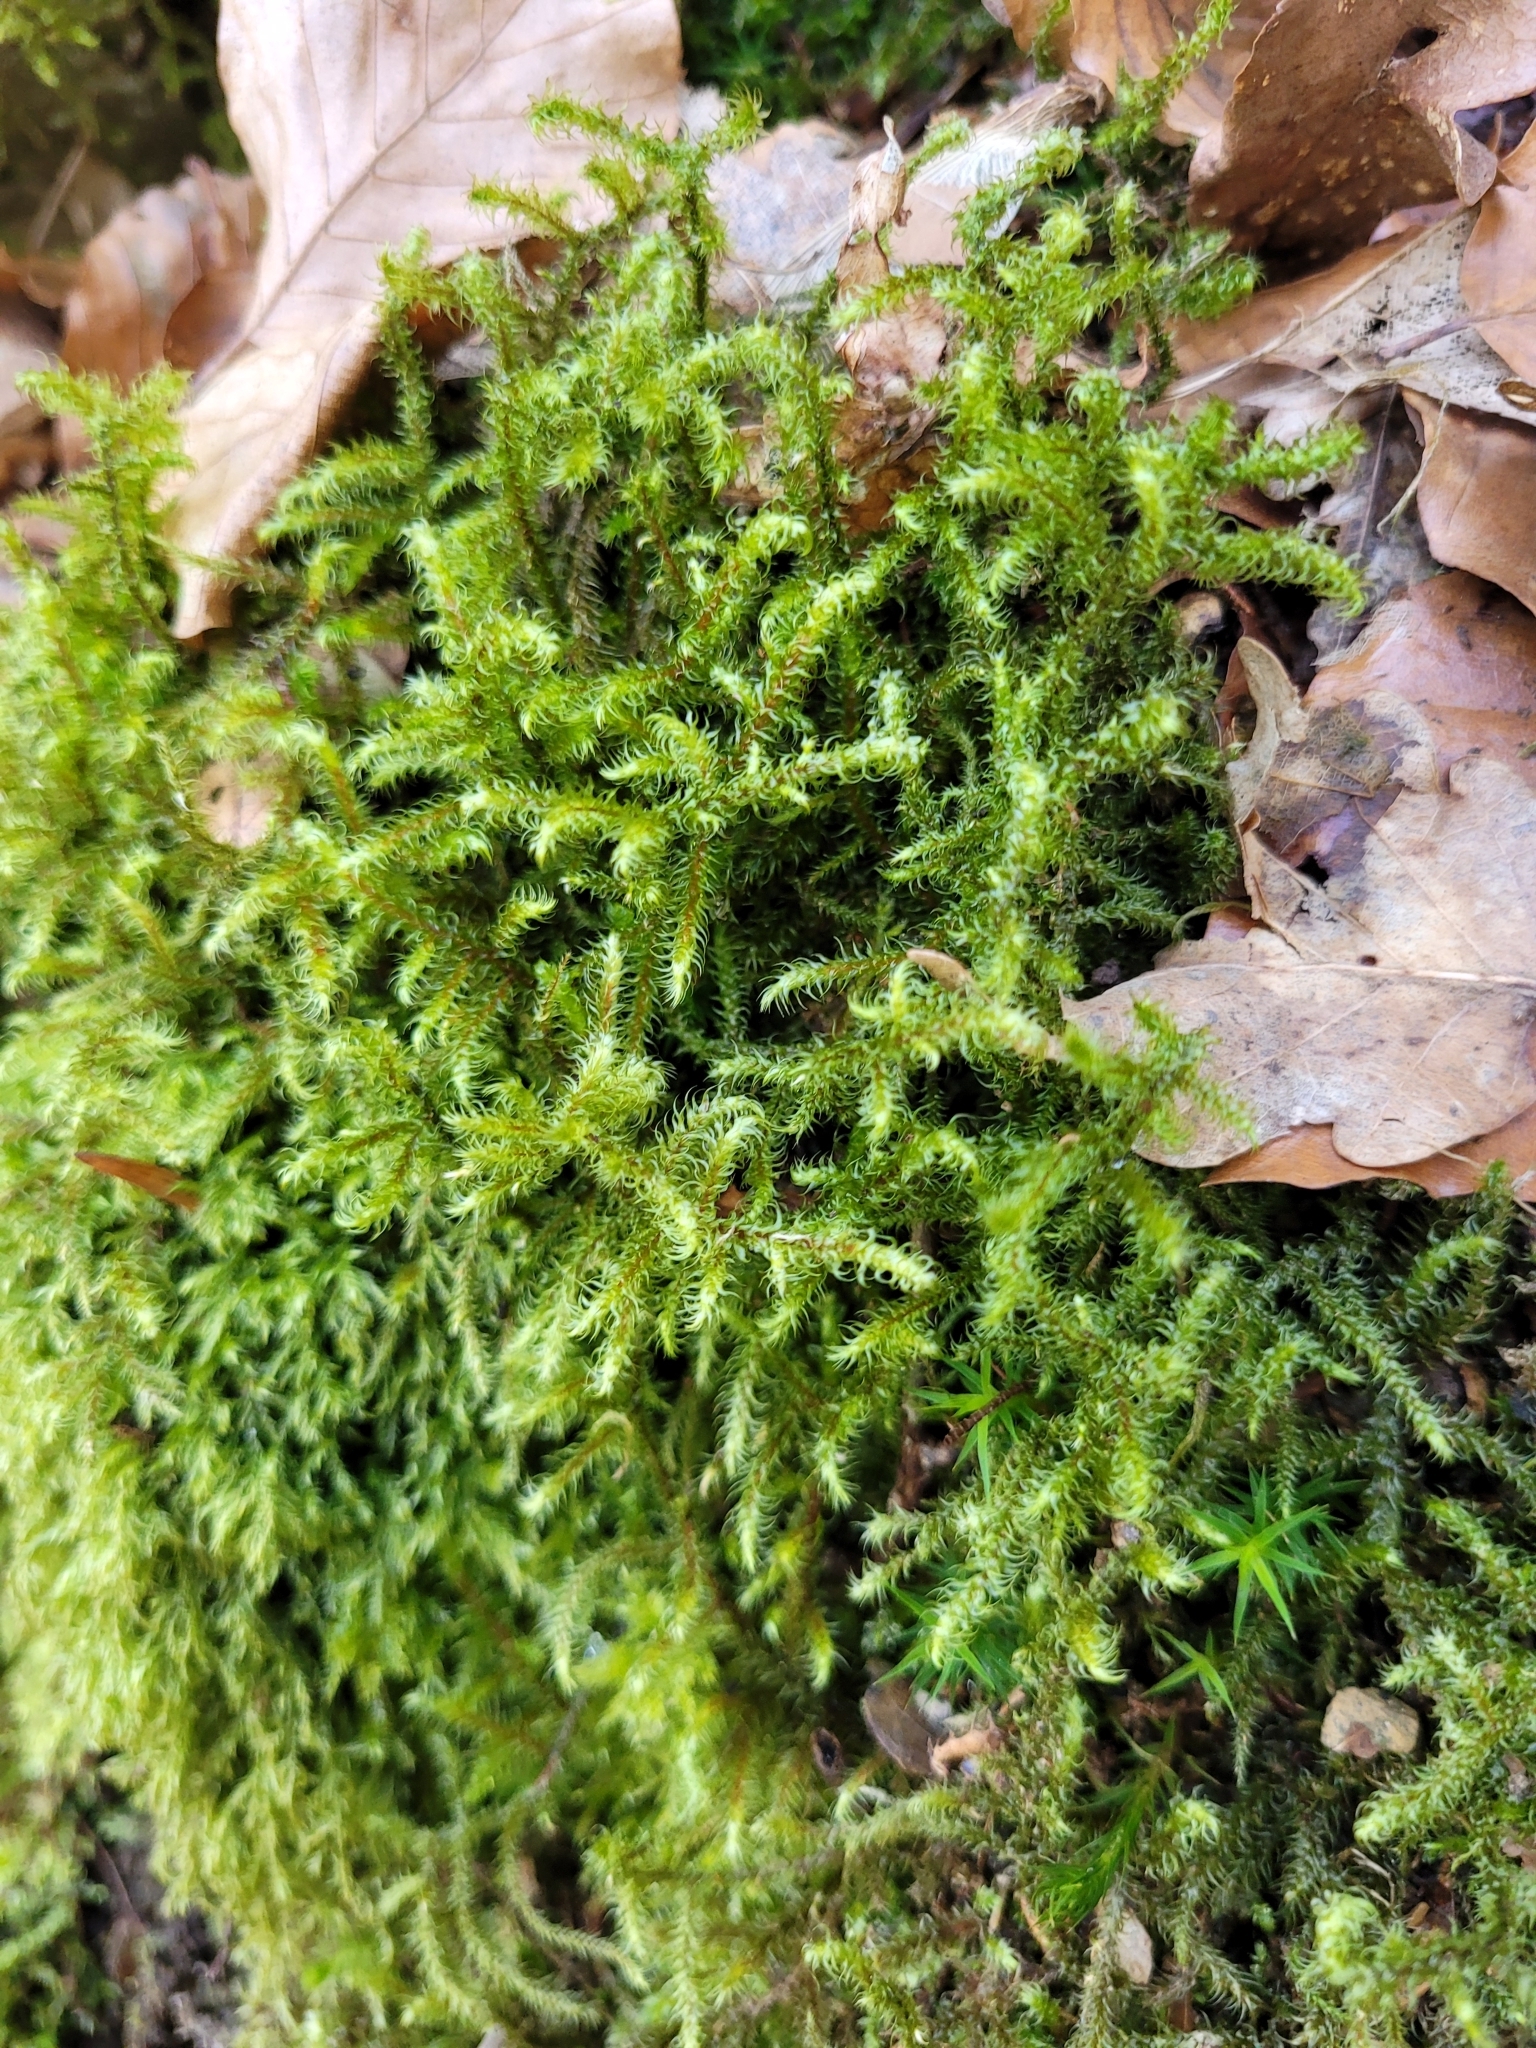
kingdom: Plantae
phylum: Bryophyta
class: Bryopsida
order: Hypnales
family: Hylocomiaceae
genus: Rhytidiadelphus
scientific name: Rhytidiadelphus loreus
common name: Lanky moss
